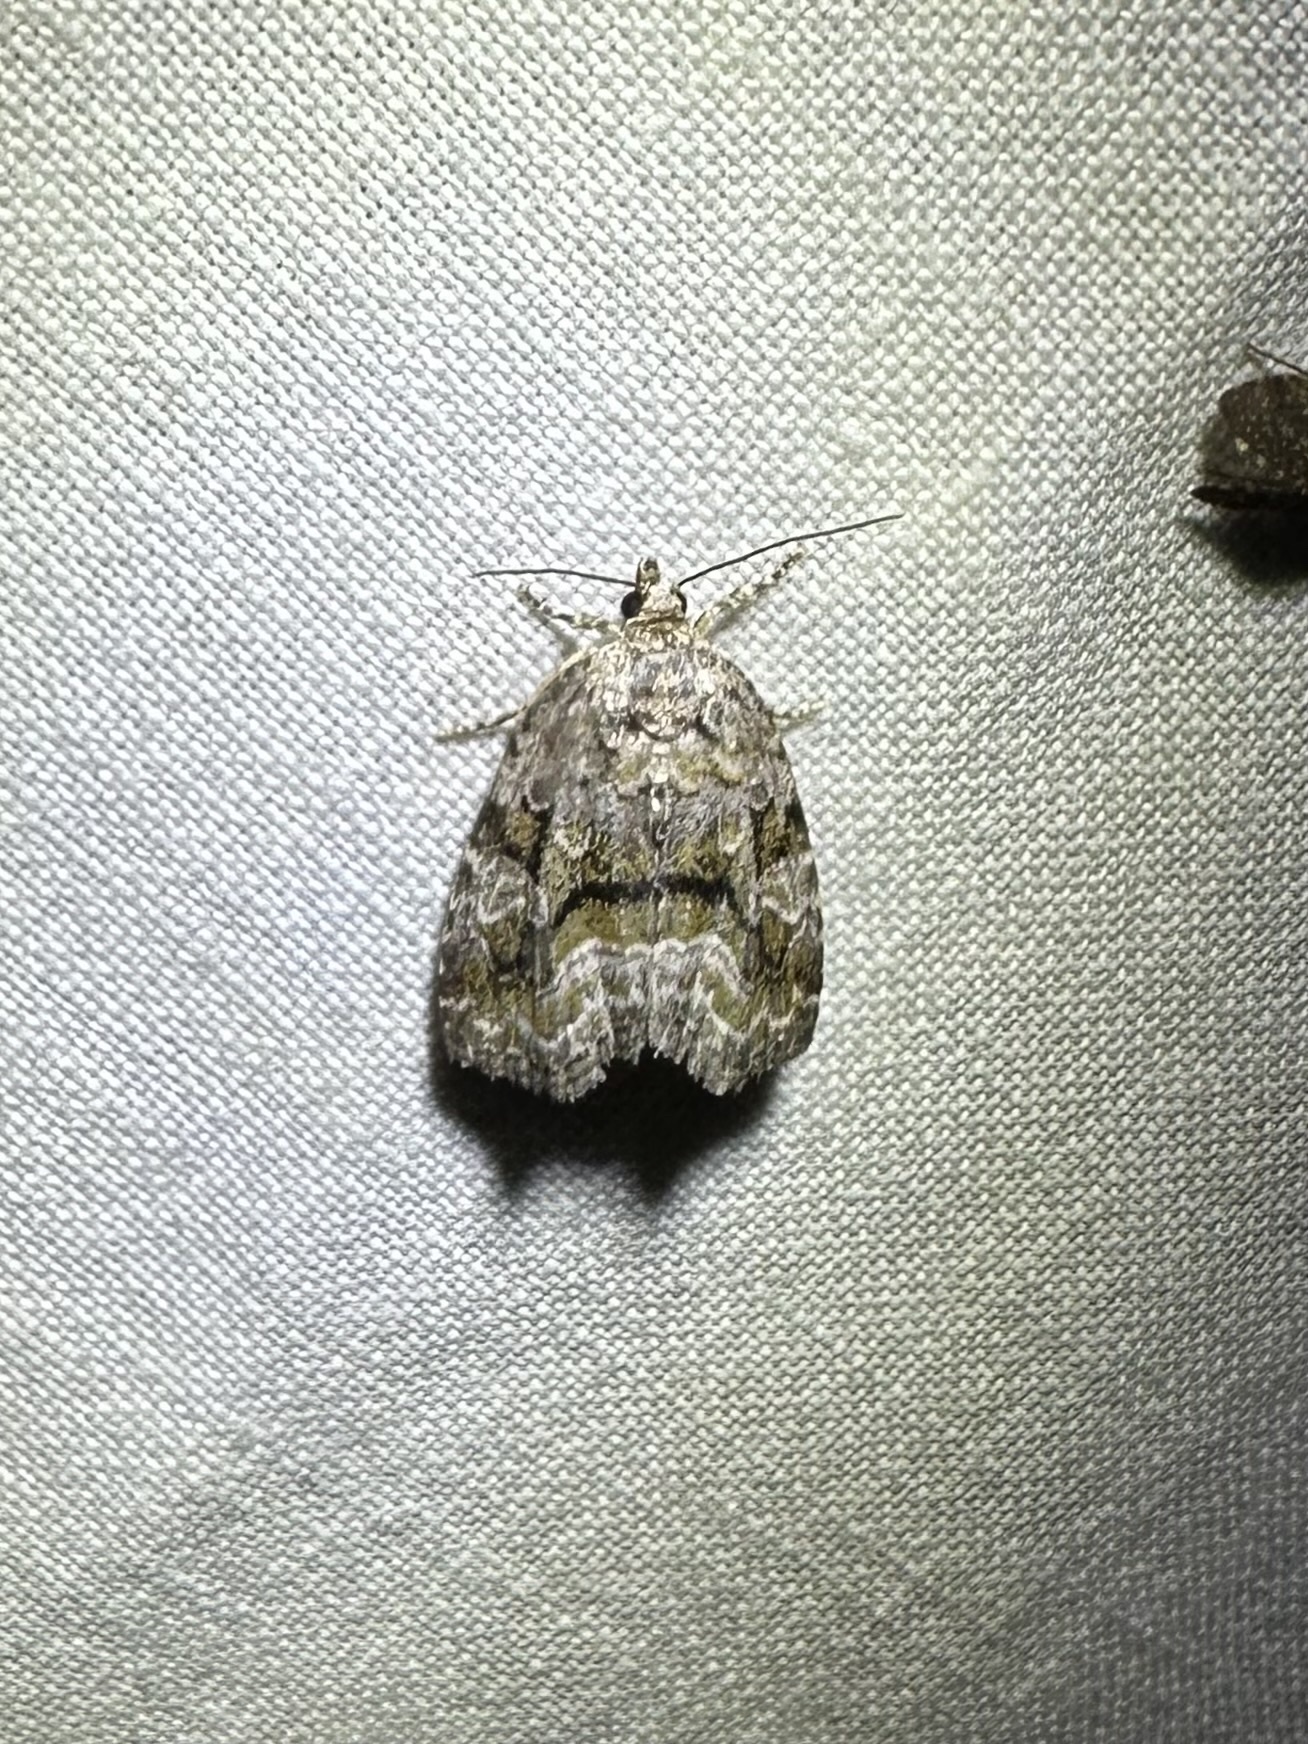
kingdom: Animalia
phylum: Arthropoda
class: Insecta
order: Lepidoptera
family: Noctuidae
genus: Protodeltote
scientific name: Protodeltote muscosula
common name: Large mossy glyph
